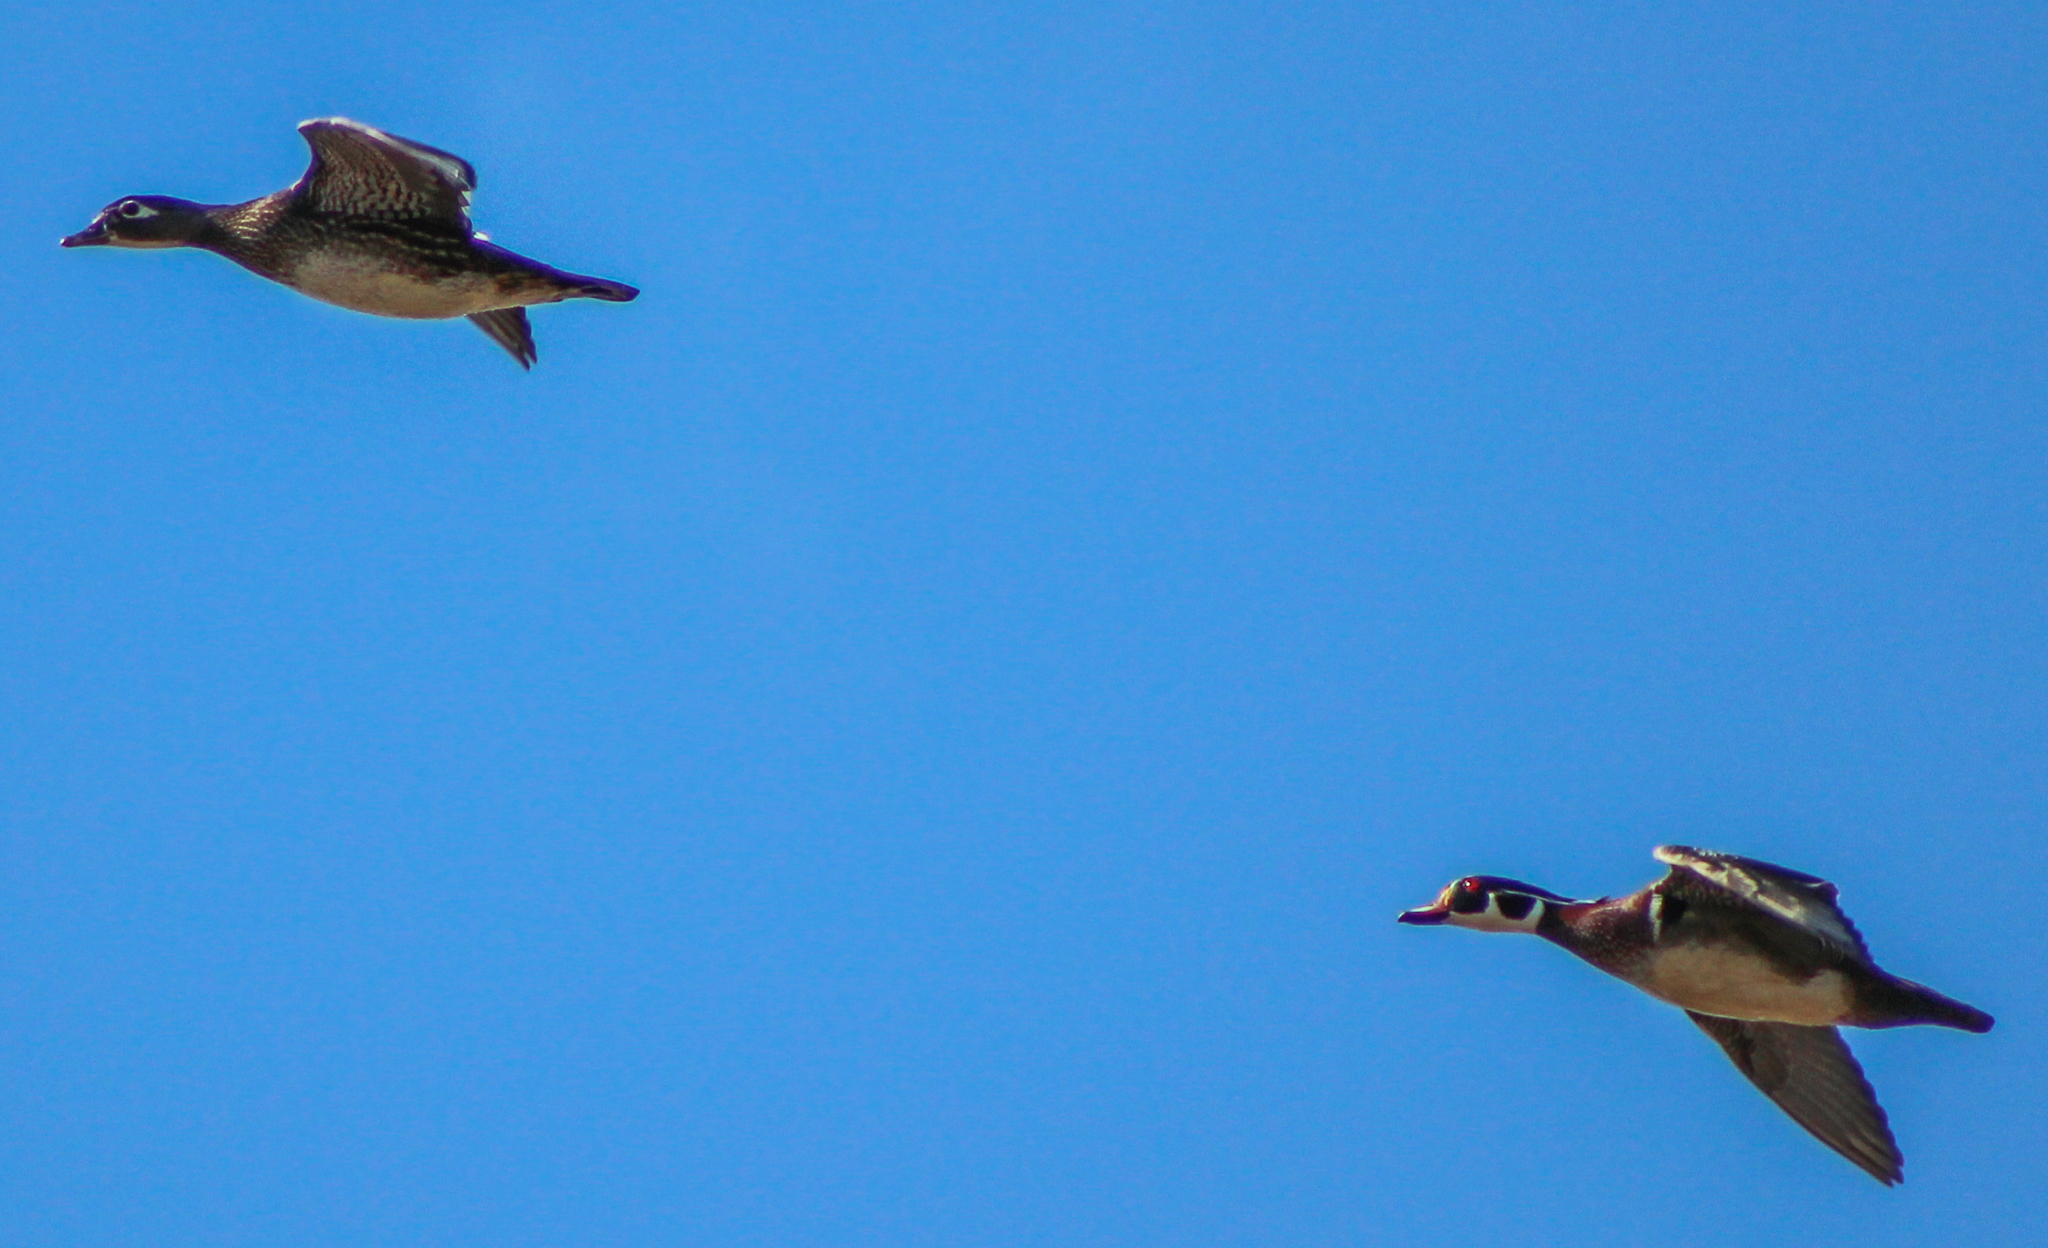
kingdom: Animalia
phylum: Chordata
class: Aves
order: Anseriformes
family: Anatidae
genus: Aix
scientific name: Aix sponsa
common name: Wood duck
